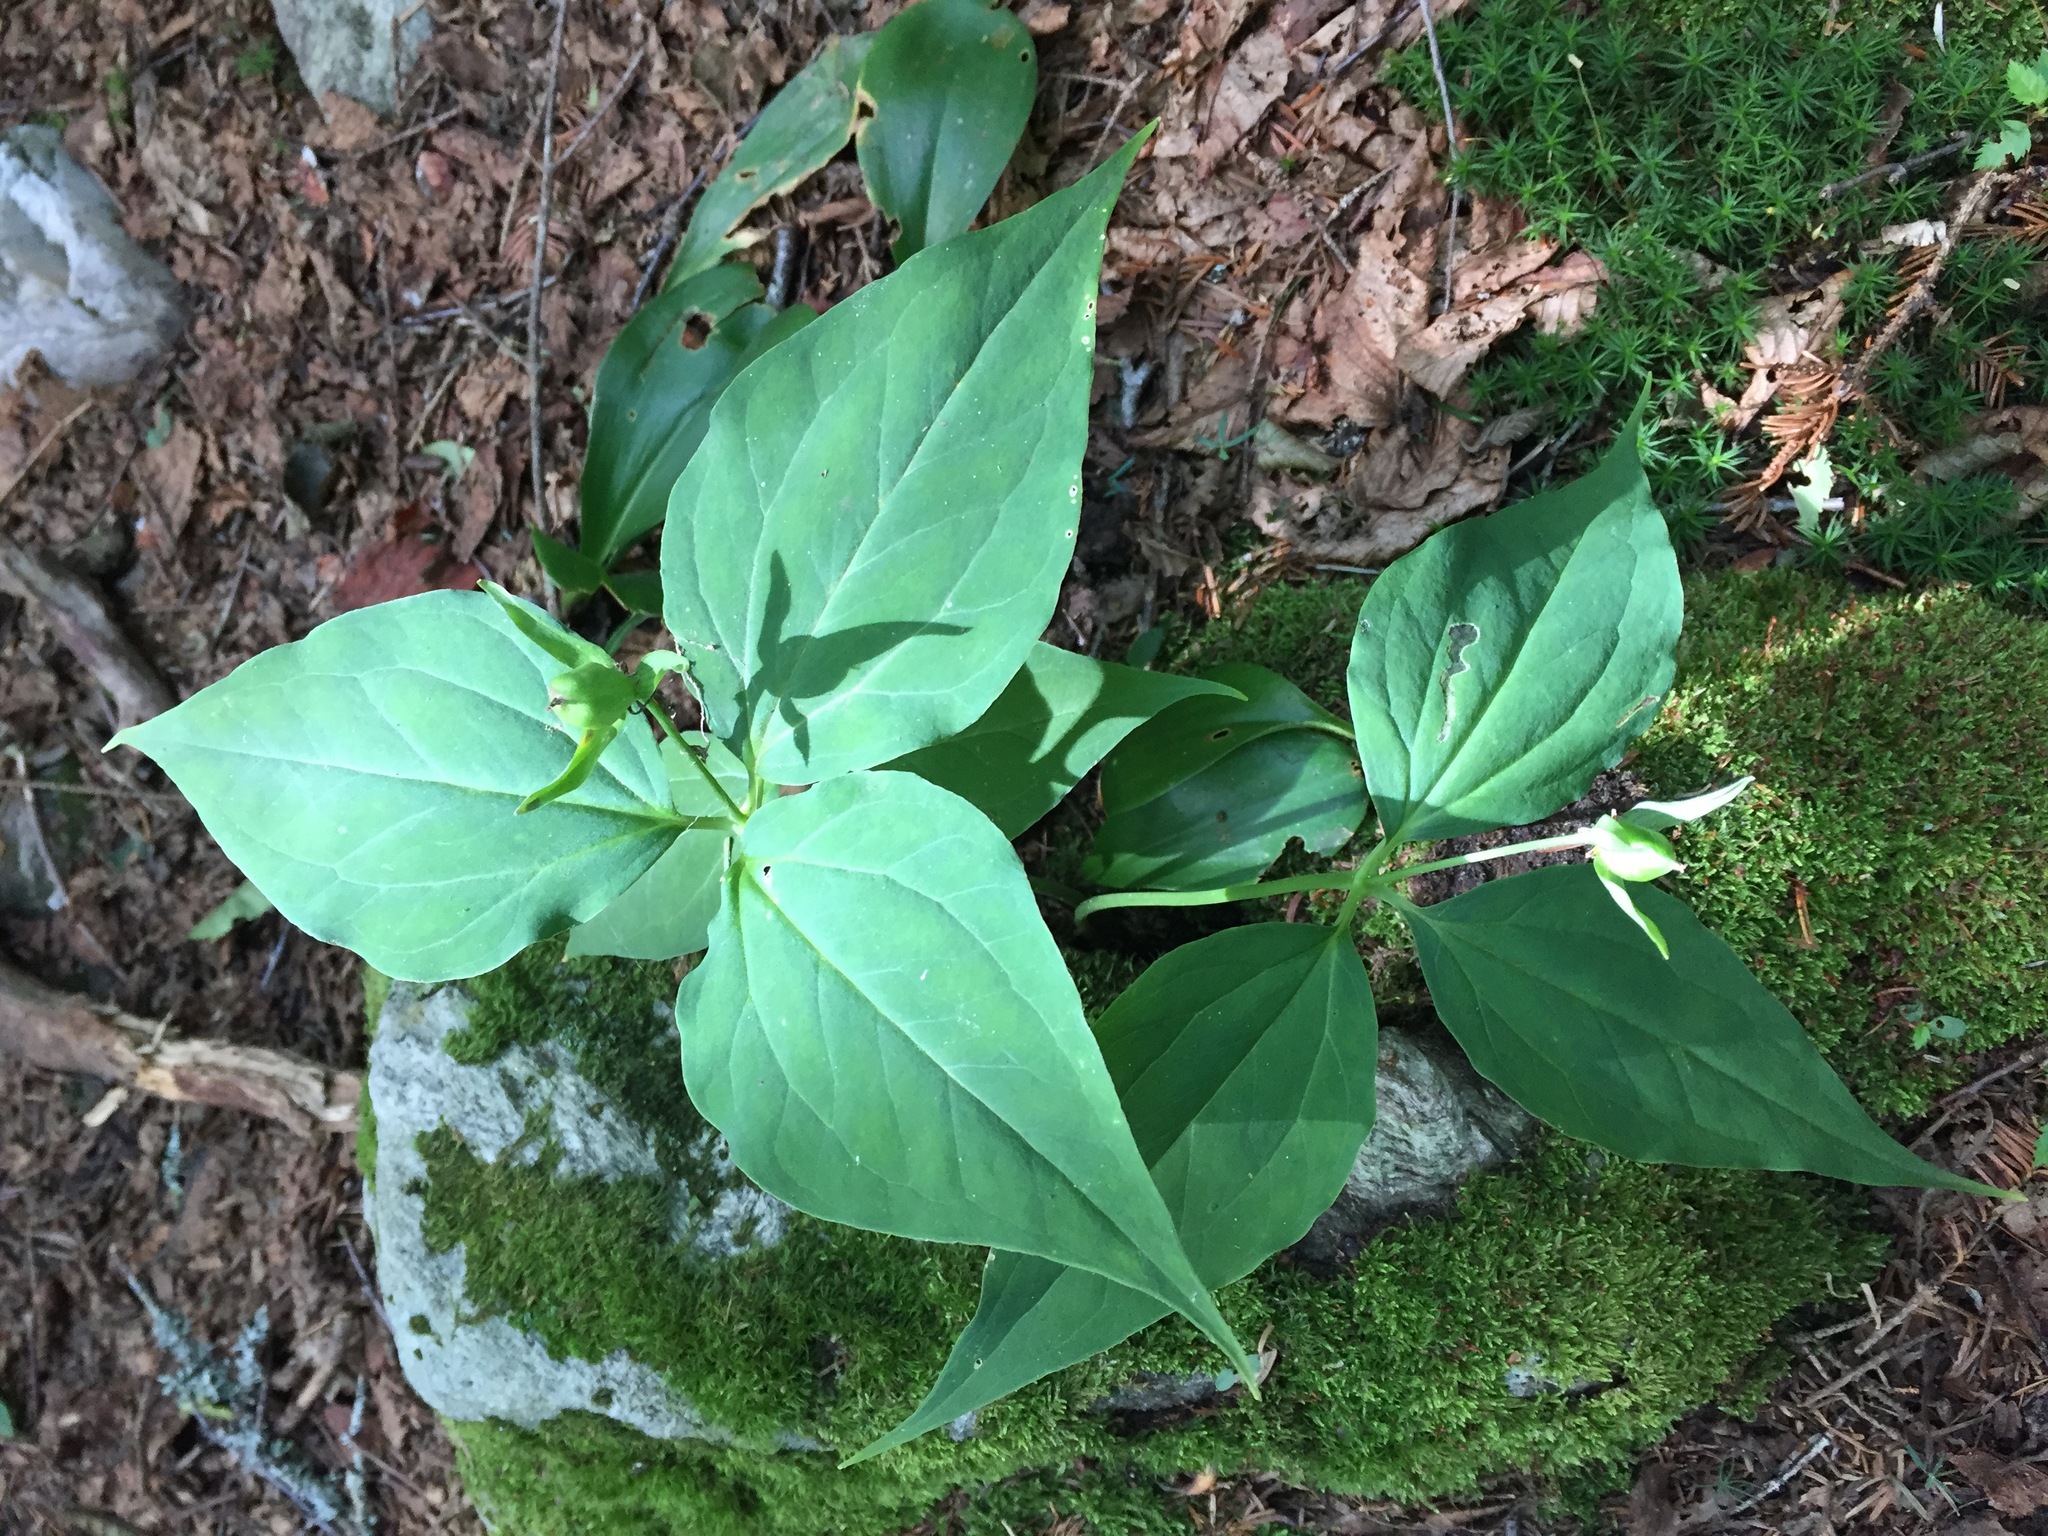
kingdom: Plantae
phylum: Tracheophyta
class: Liliopsida
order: Liliales
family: Melanthiaceae
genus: Trillium
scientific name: Trillium undulatum
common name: Paint trillium
